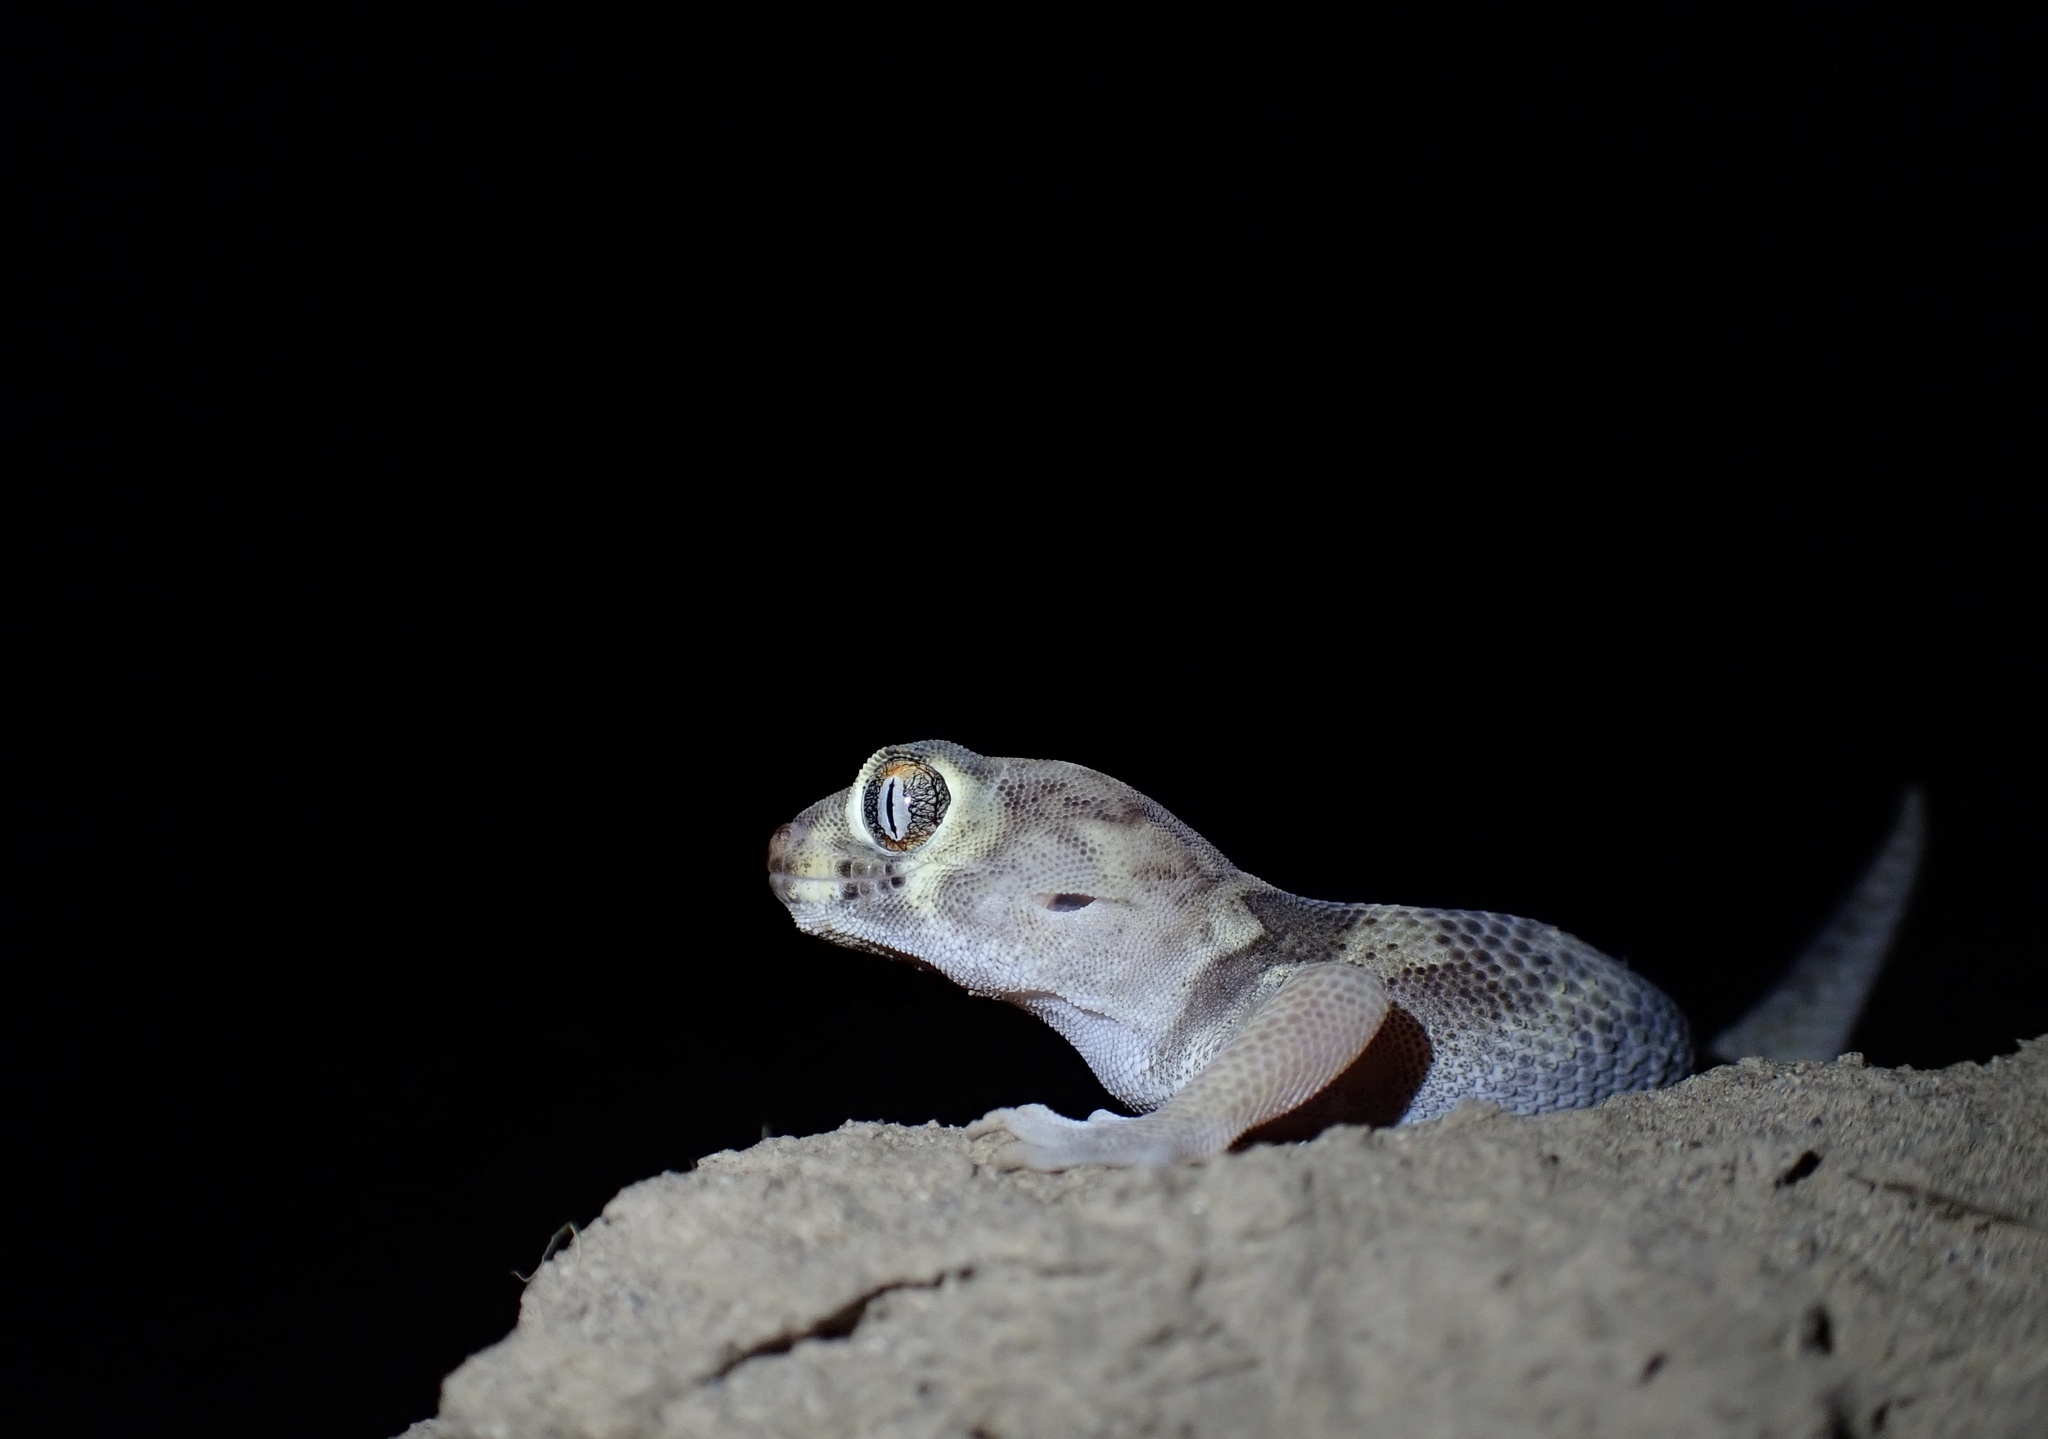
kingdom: Animalia
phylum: Chordata
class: Squamata
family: Sphaerodactylidae
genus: Teratoscincus
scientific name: Teratoscincus bedriagai
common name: Bedriaga's plate-tailed gecko
